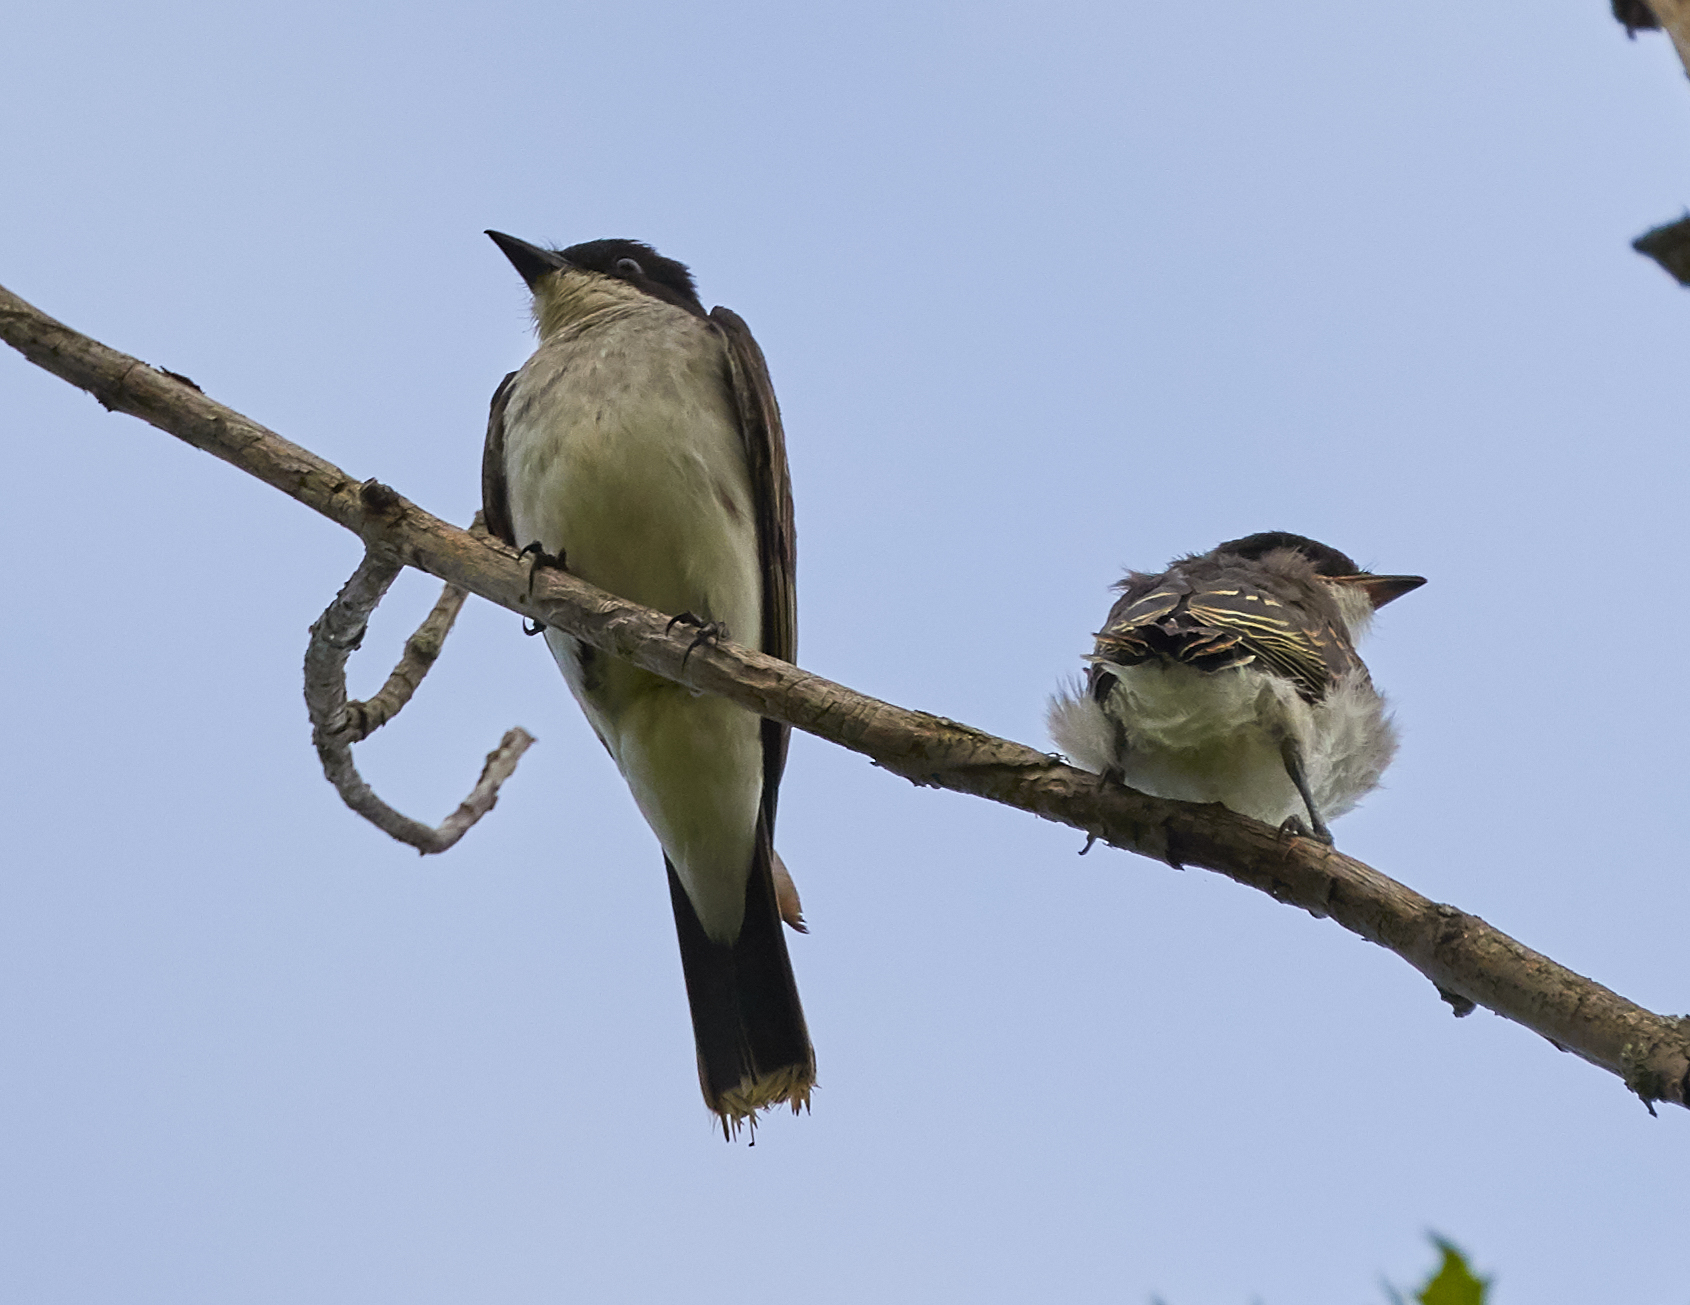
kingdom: Animalia
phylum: Chordata
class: Aves
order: Passeriformes
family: Tyrannidae
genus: Tyrannus
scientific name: Tyrannus tyrannus
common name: Eastern kingbird
